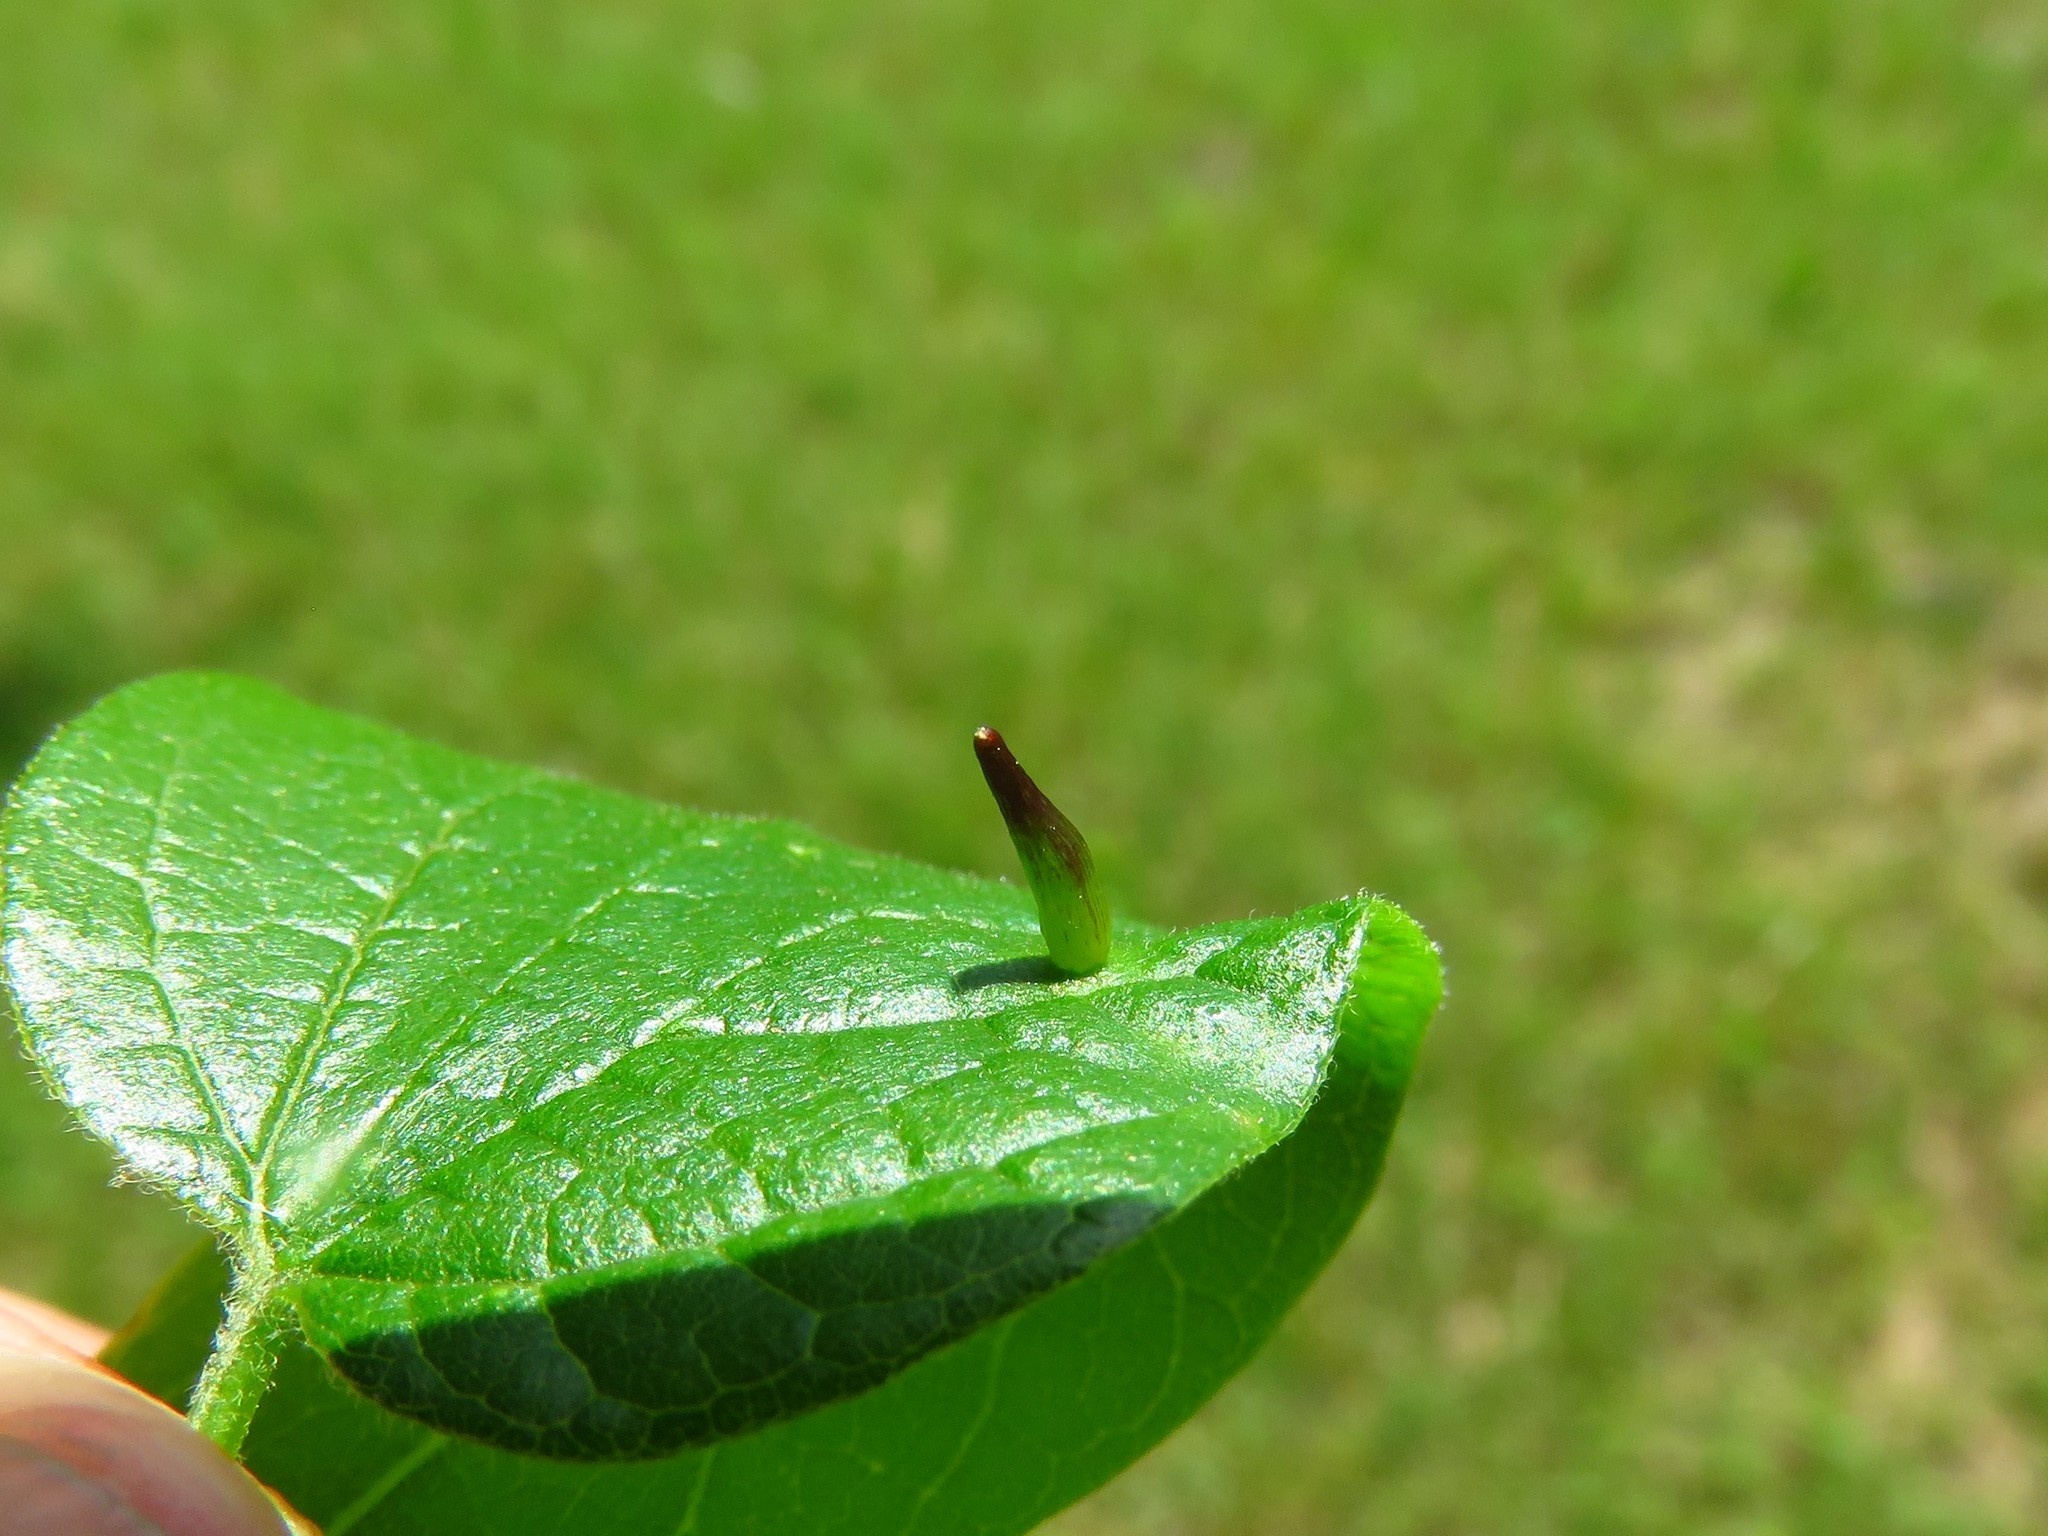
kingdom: Animalia
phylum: Arthropoda
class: Insecta
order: Diptera
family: Cecidomyiidae
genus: Celticecis
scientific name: Celticecis subulata
